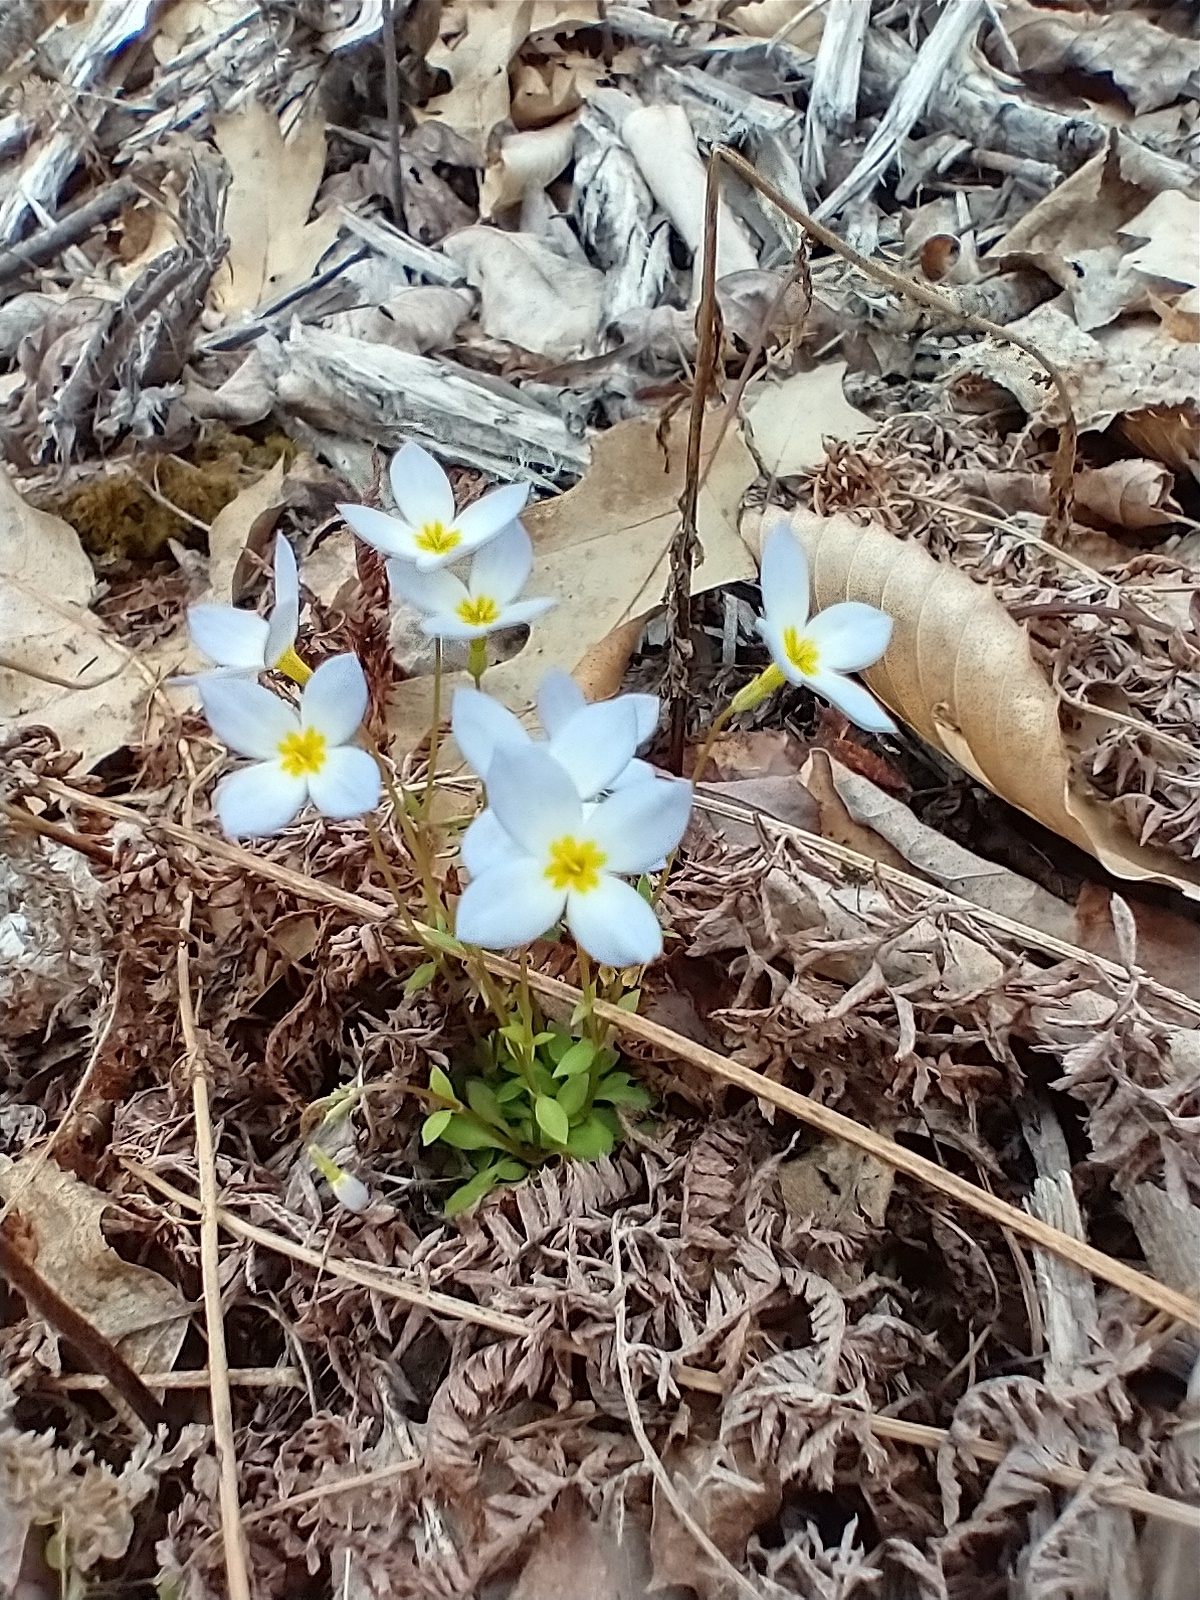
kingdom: Plantae
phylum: Tracheophyta
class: Magnoliopsida
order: Gentianales
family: Rubiaceae
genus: Houstonia
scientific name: Houstonia caerulea
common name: Bluets
